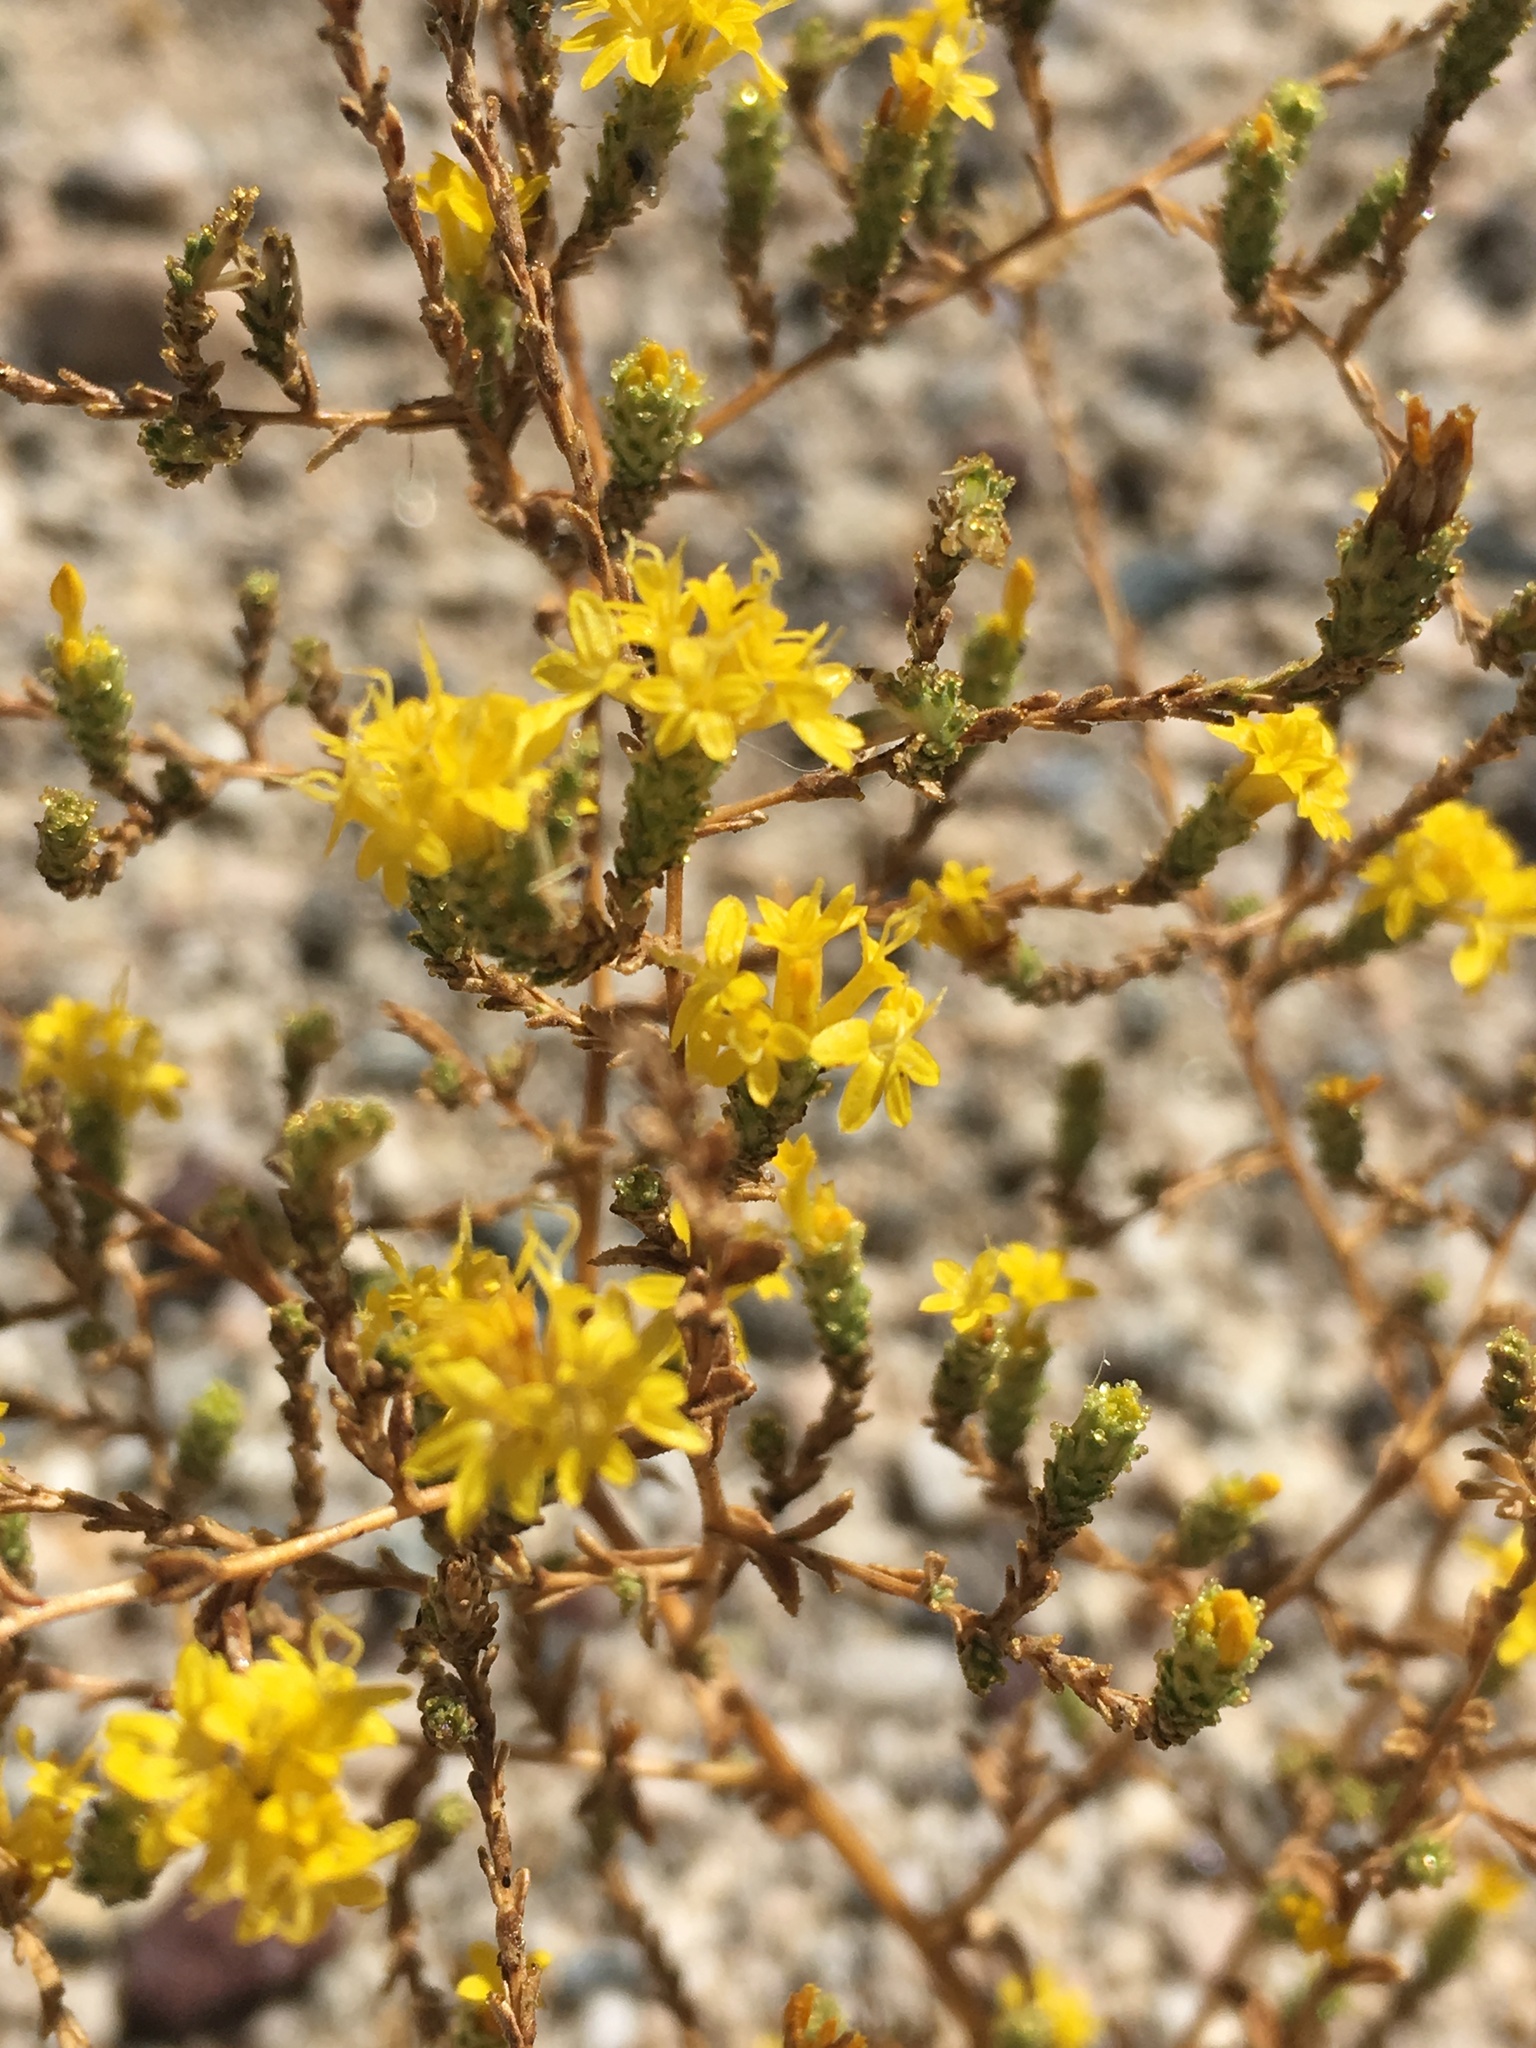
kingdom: Plantae
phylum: Tracheophyta
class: Magnoliopsida
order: Asterales
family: Asteraceae
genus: Lessingia
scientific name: Lessingia glandulifera
